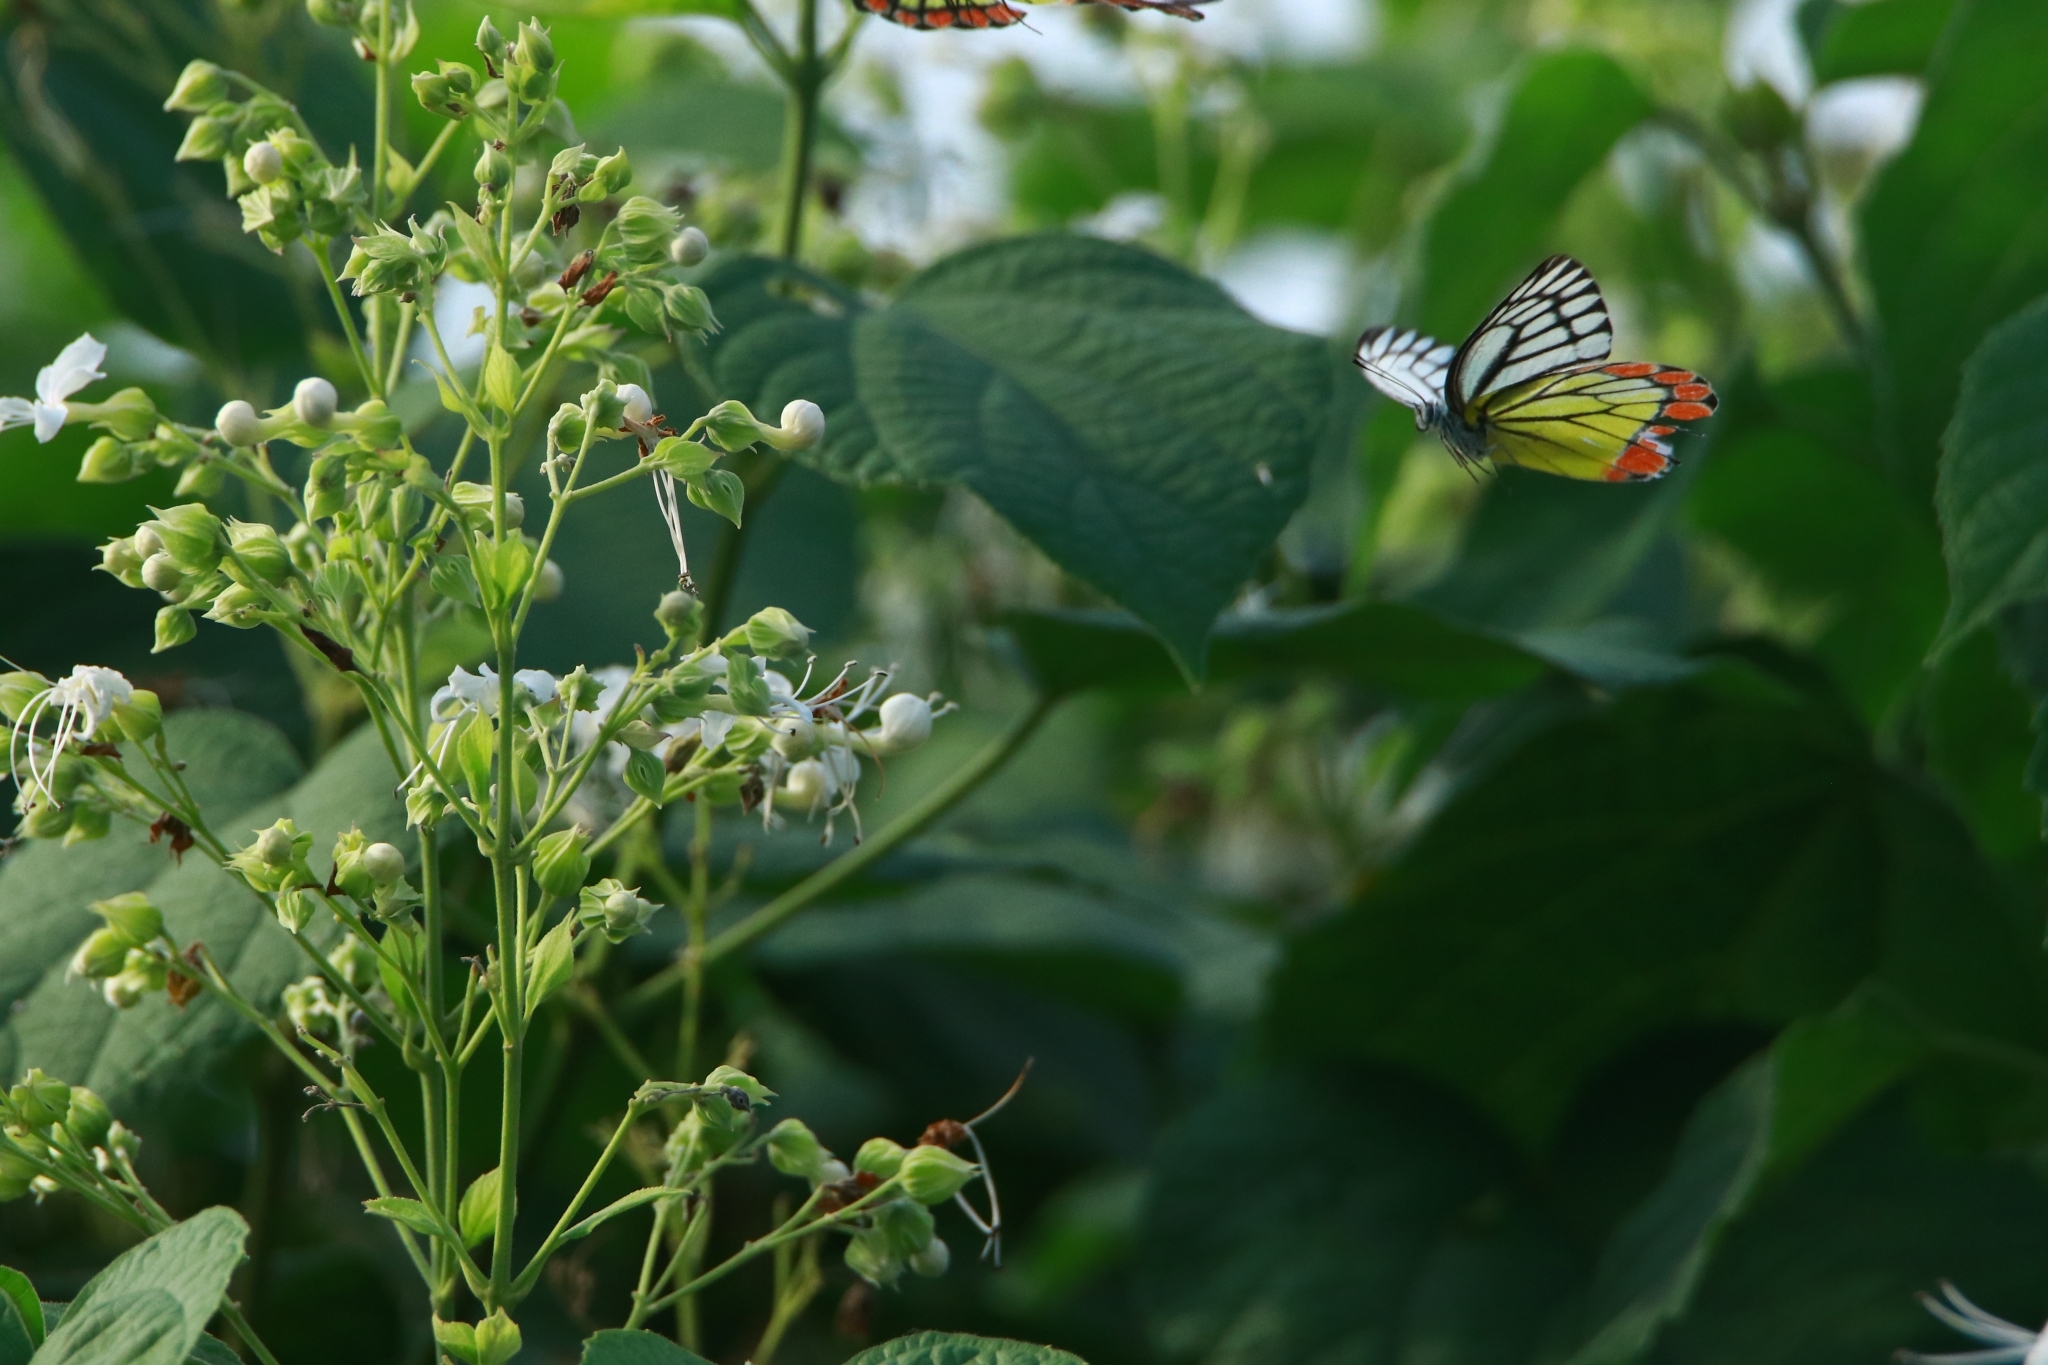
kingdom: Animalia
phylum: Arthropoda
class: Insecta
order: Lepidoptera
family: Pieridae
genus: Delias
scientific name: Delias eucharis
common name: Common jezebel
